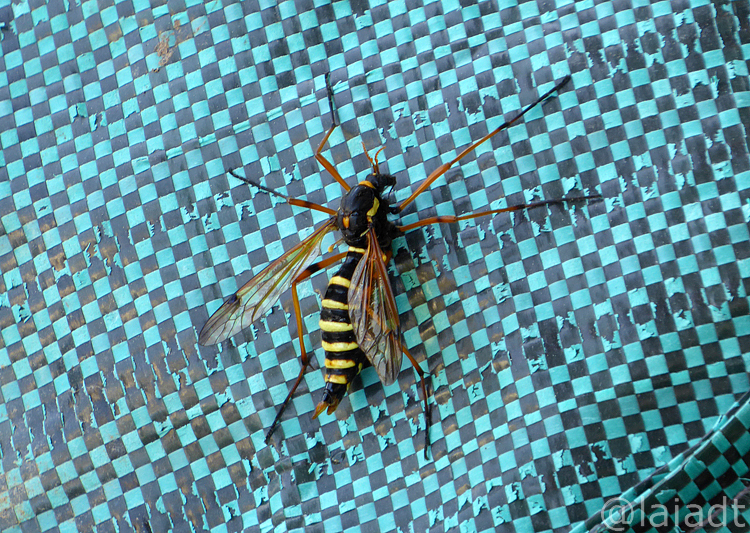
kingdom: Animalia
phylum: Arthropoda
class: Insecta
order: Diptera
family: Tipulidae
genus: Ctenophora
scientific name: Ctenophora flaveolata
